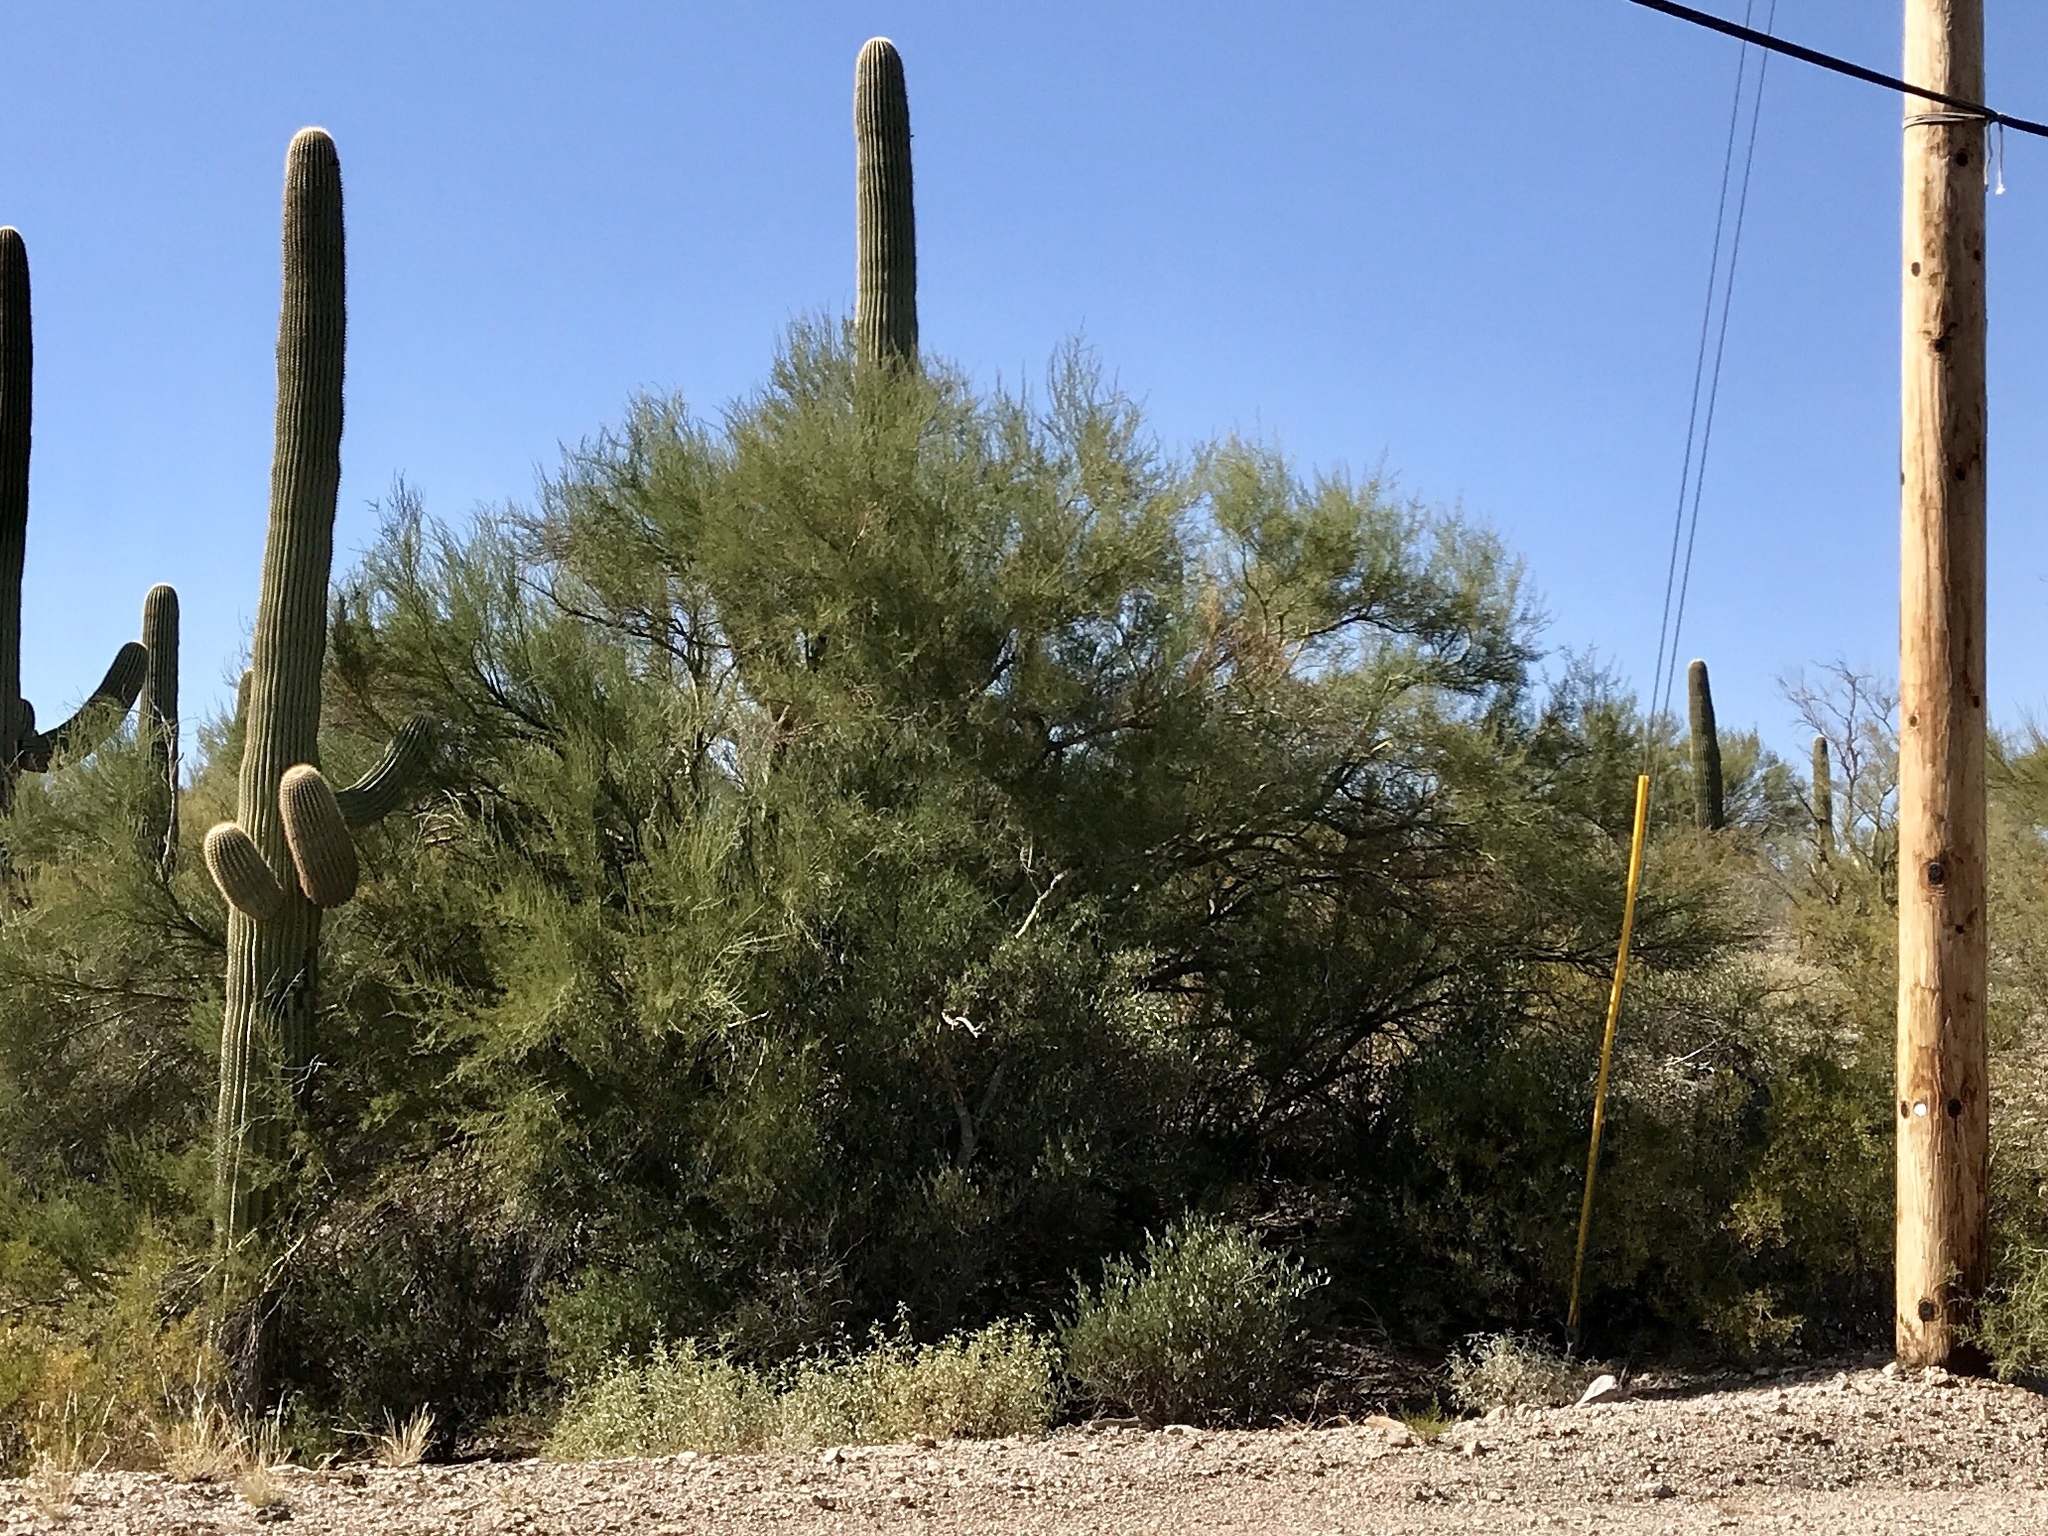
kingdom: Plantae
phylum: Tracheophyta
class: Magnoliopsida
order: Fabales
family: Fabaceae
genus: Parkinsonia
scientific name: Parkinsonia microphylla
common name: Yellow paloverde
